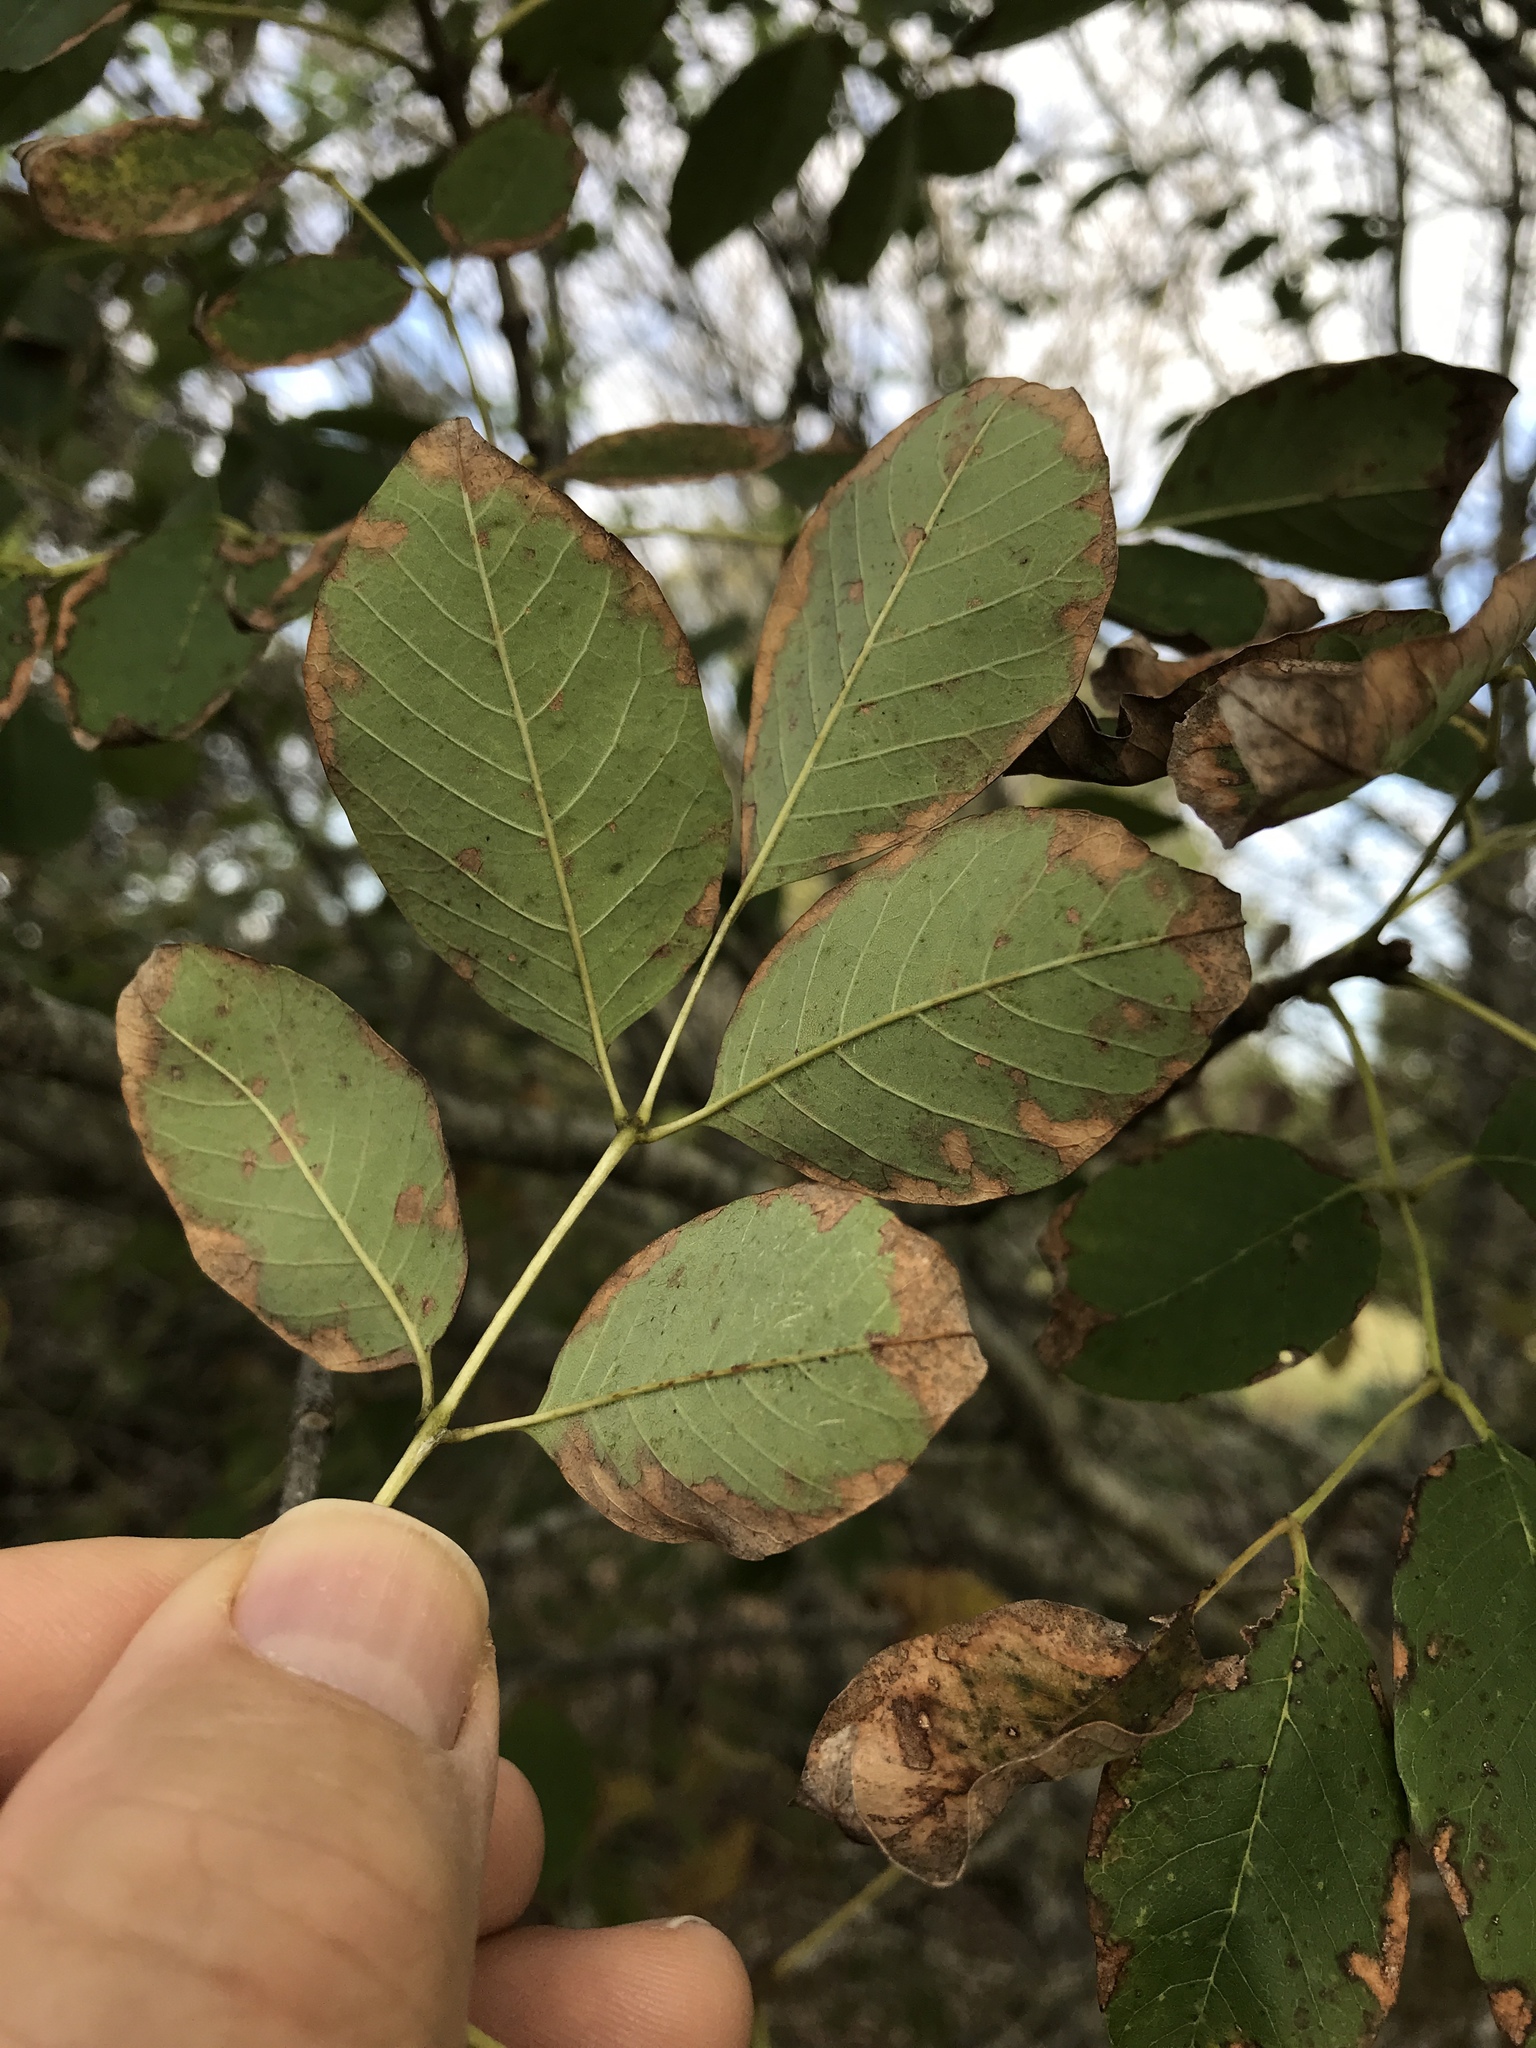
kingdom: Plantae
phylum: Tracheophyta
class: Magnoliopsida
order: Lamiales
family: Oleaceae
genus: Fraxinus
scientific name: Fraxinus albicans
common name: Texas ash
